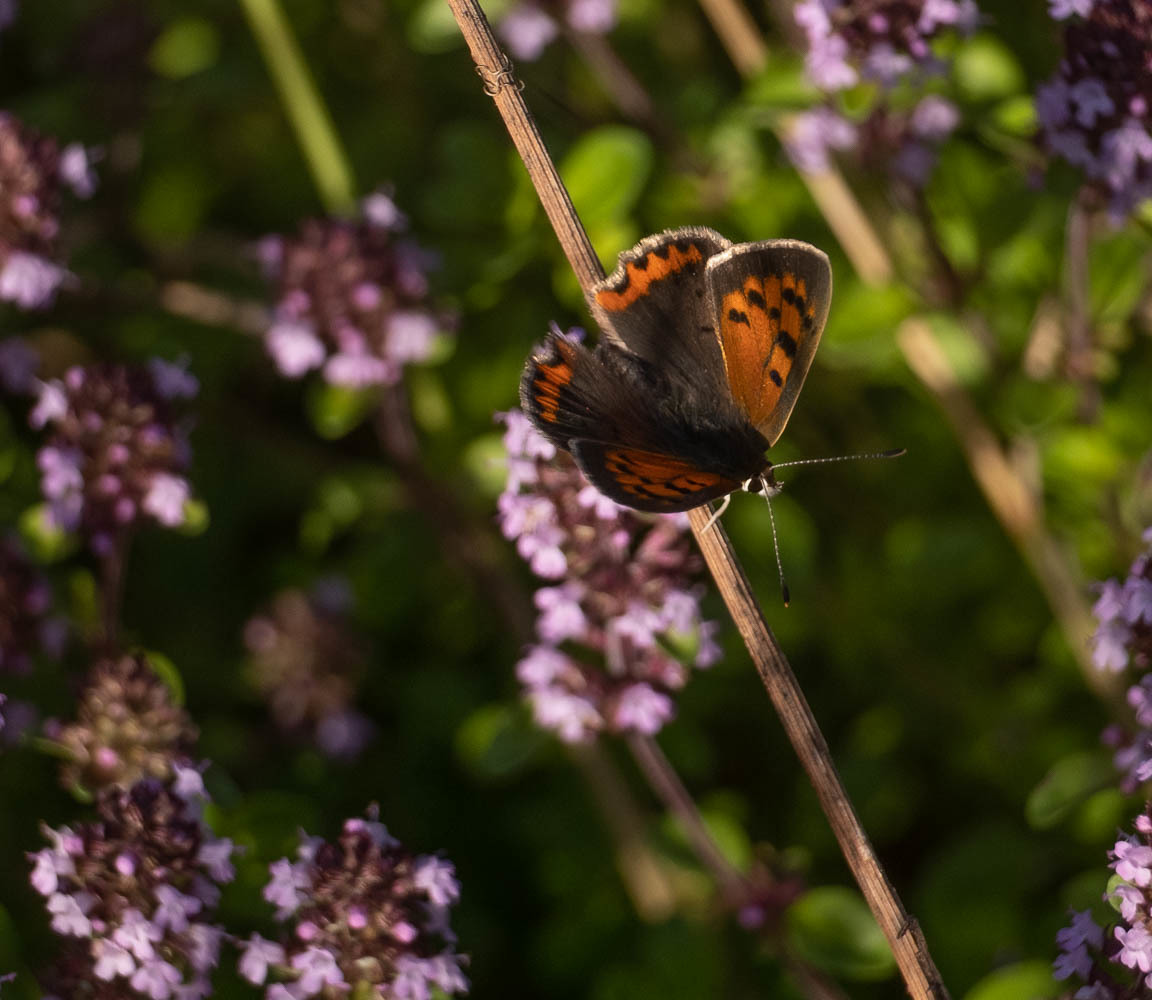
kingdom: Animalia
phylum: Arthropoda
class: Insecta
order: Lepidoptera
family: Lycaenidae
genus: Lycaena
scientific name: Lycaena phlaeas
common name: Small copper
